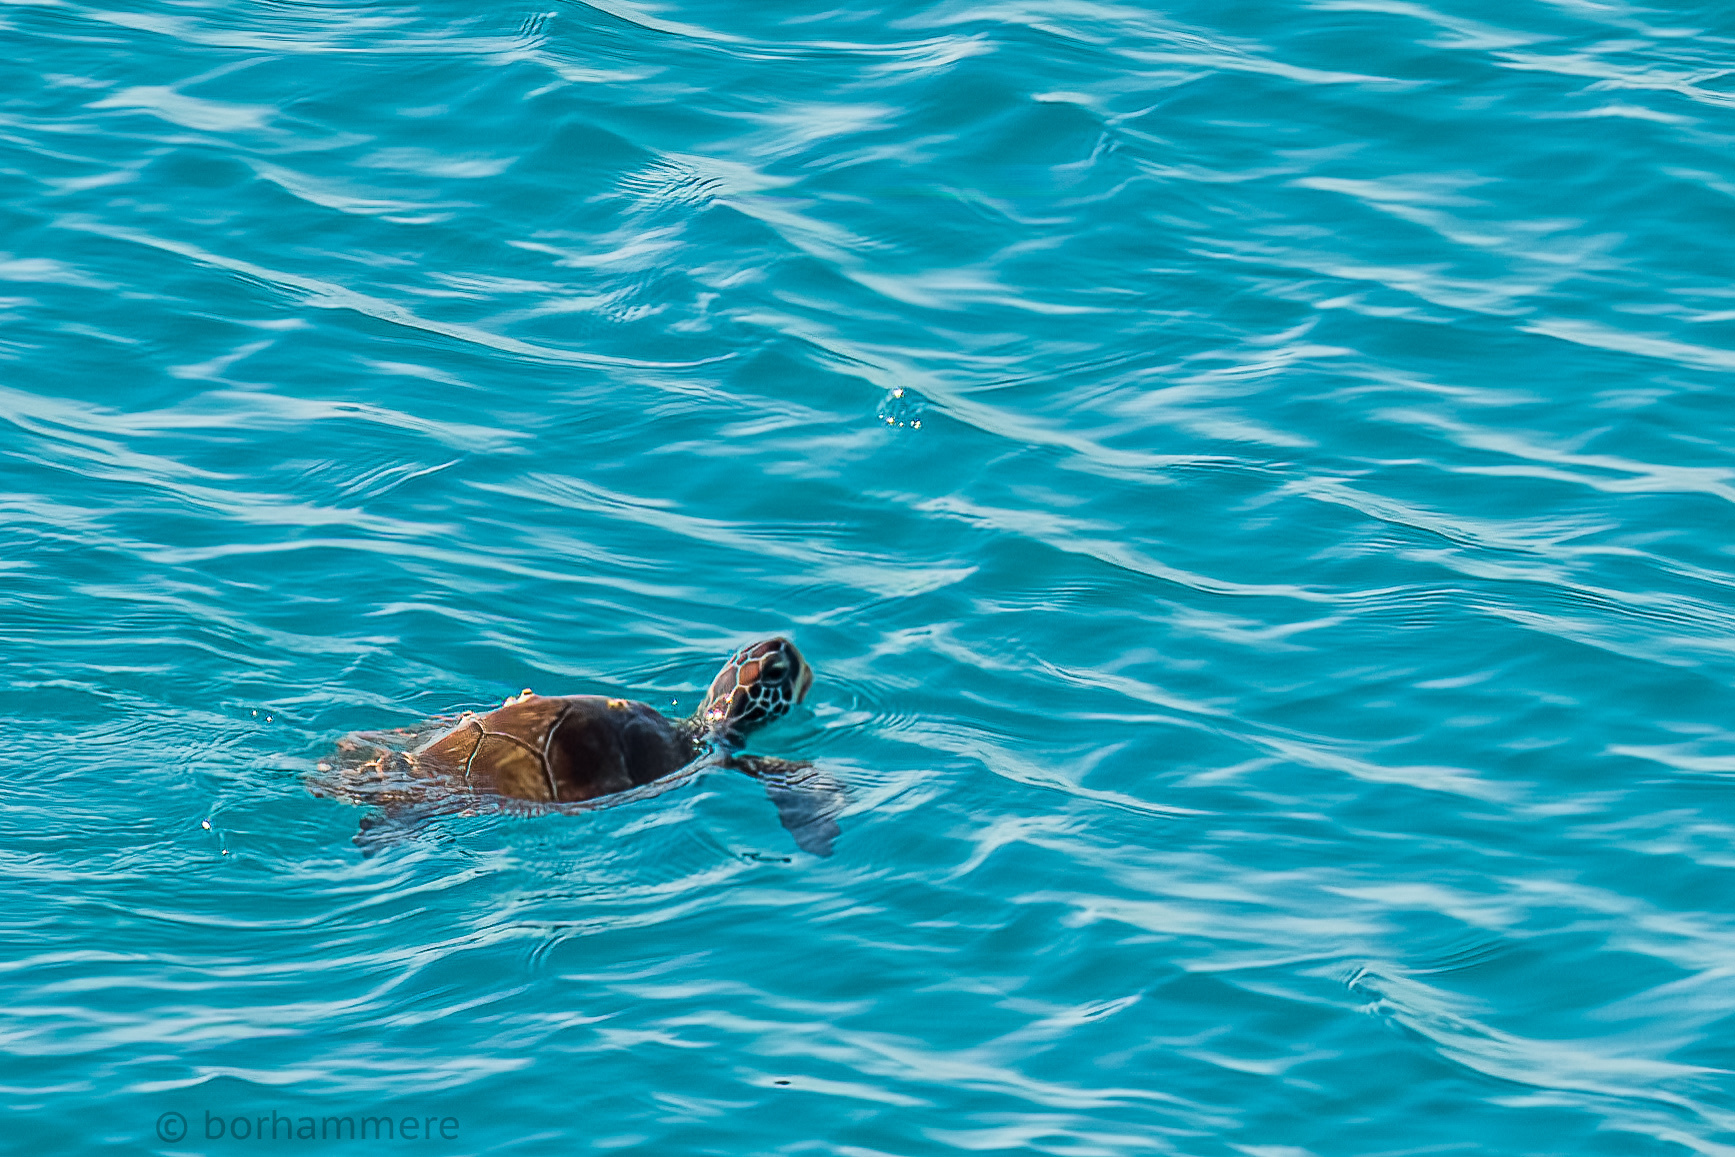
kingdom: Animalia
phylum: Chordata
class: Testudines
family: Cheloniidae
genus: Chelonia
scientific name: Chelonia mydas
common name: Green turtle
